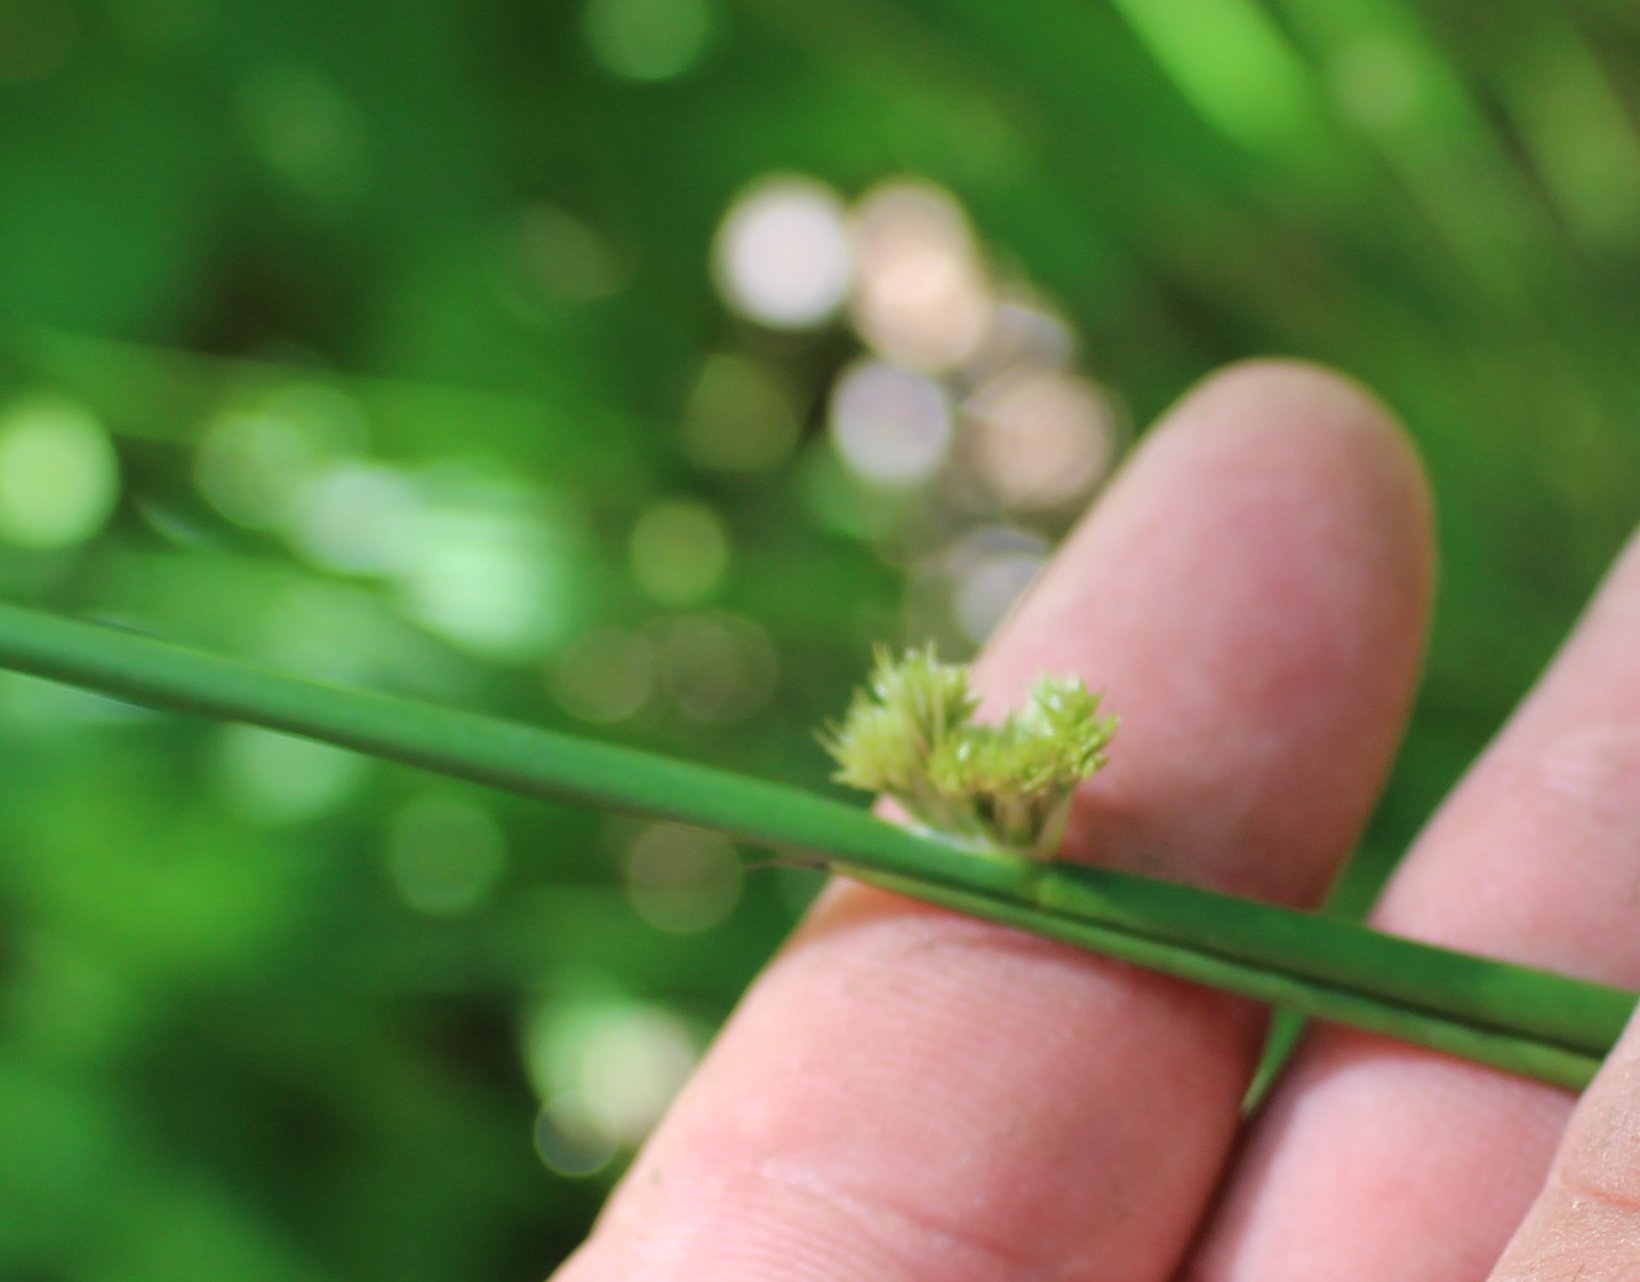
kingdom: Plantae
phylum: Tracheophyta
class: Liliopsida
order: Poales
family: Juncaceae
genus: Juncus
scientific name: Juncus effusus
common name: Soft rush
